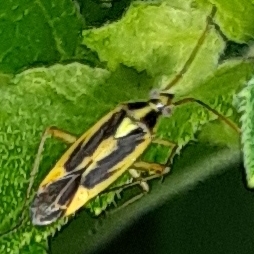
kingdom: Animalia
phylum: Arthropoda
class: Insecta
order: Hemiptera
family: Miridae
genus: Stenotus
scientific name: Stenotus binotatus
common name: Plant bug
